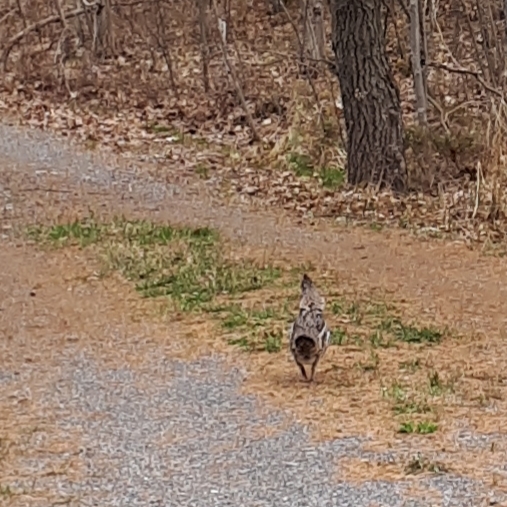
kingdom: Animalia
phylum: Chordata
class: Aves
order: Galliformes
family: Phasianidae
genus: Bonasa
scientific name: Bonasa umbellus
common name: Ruffed grouse
